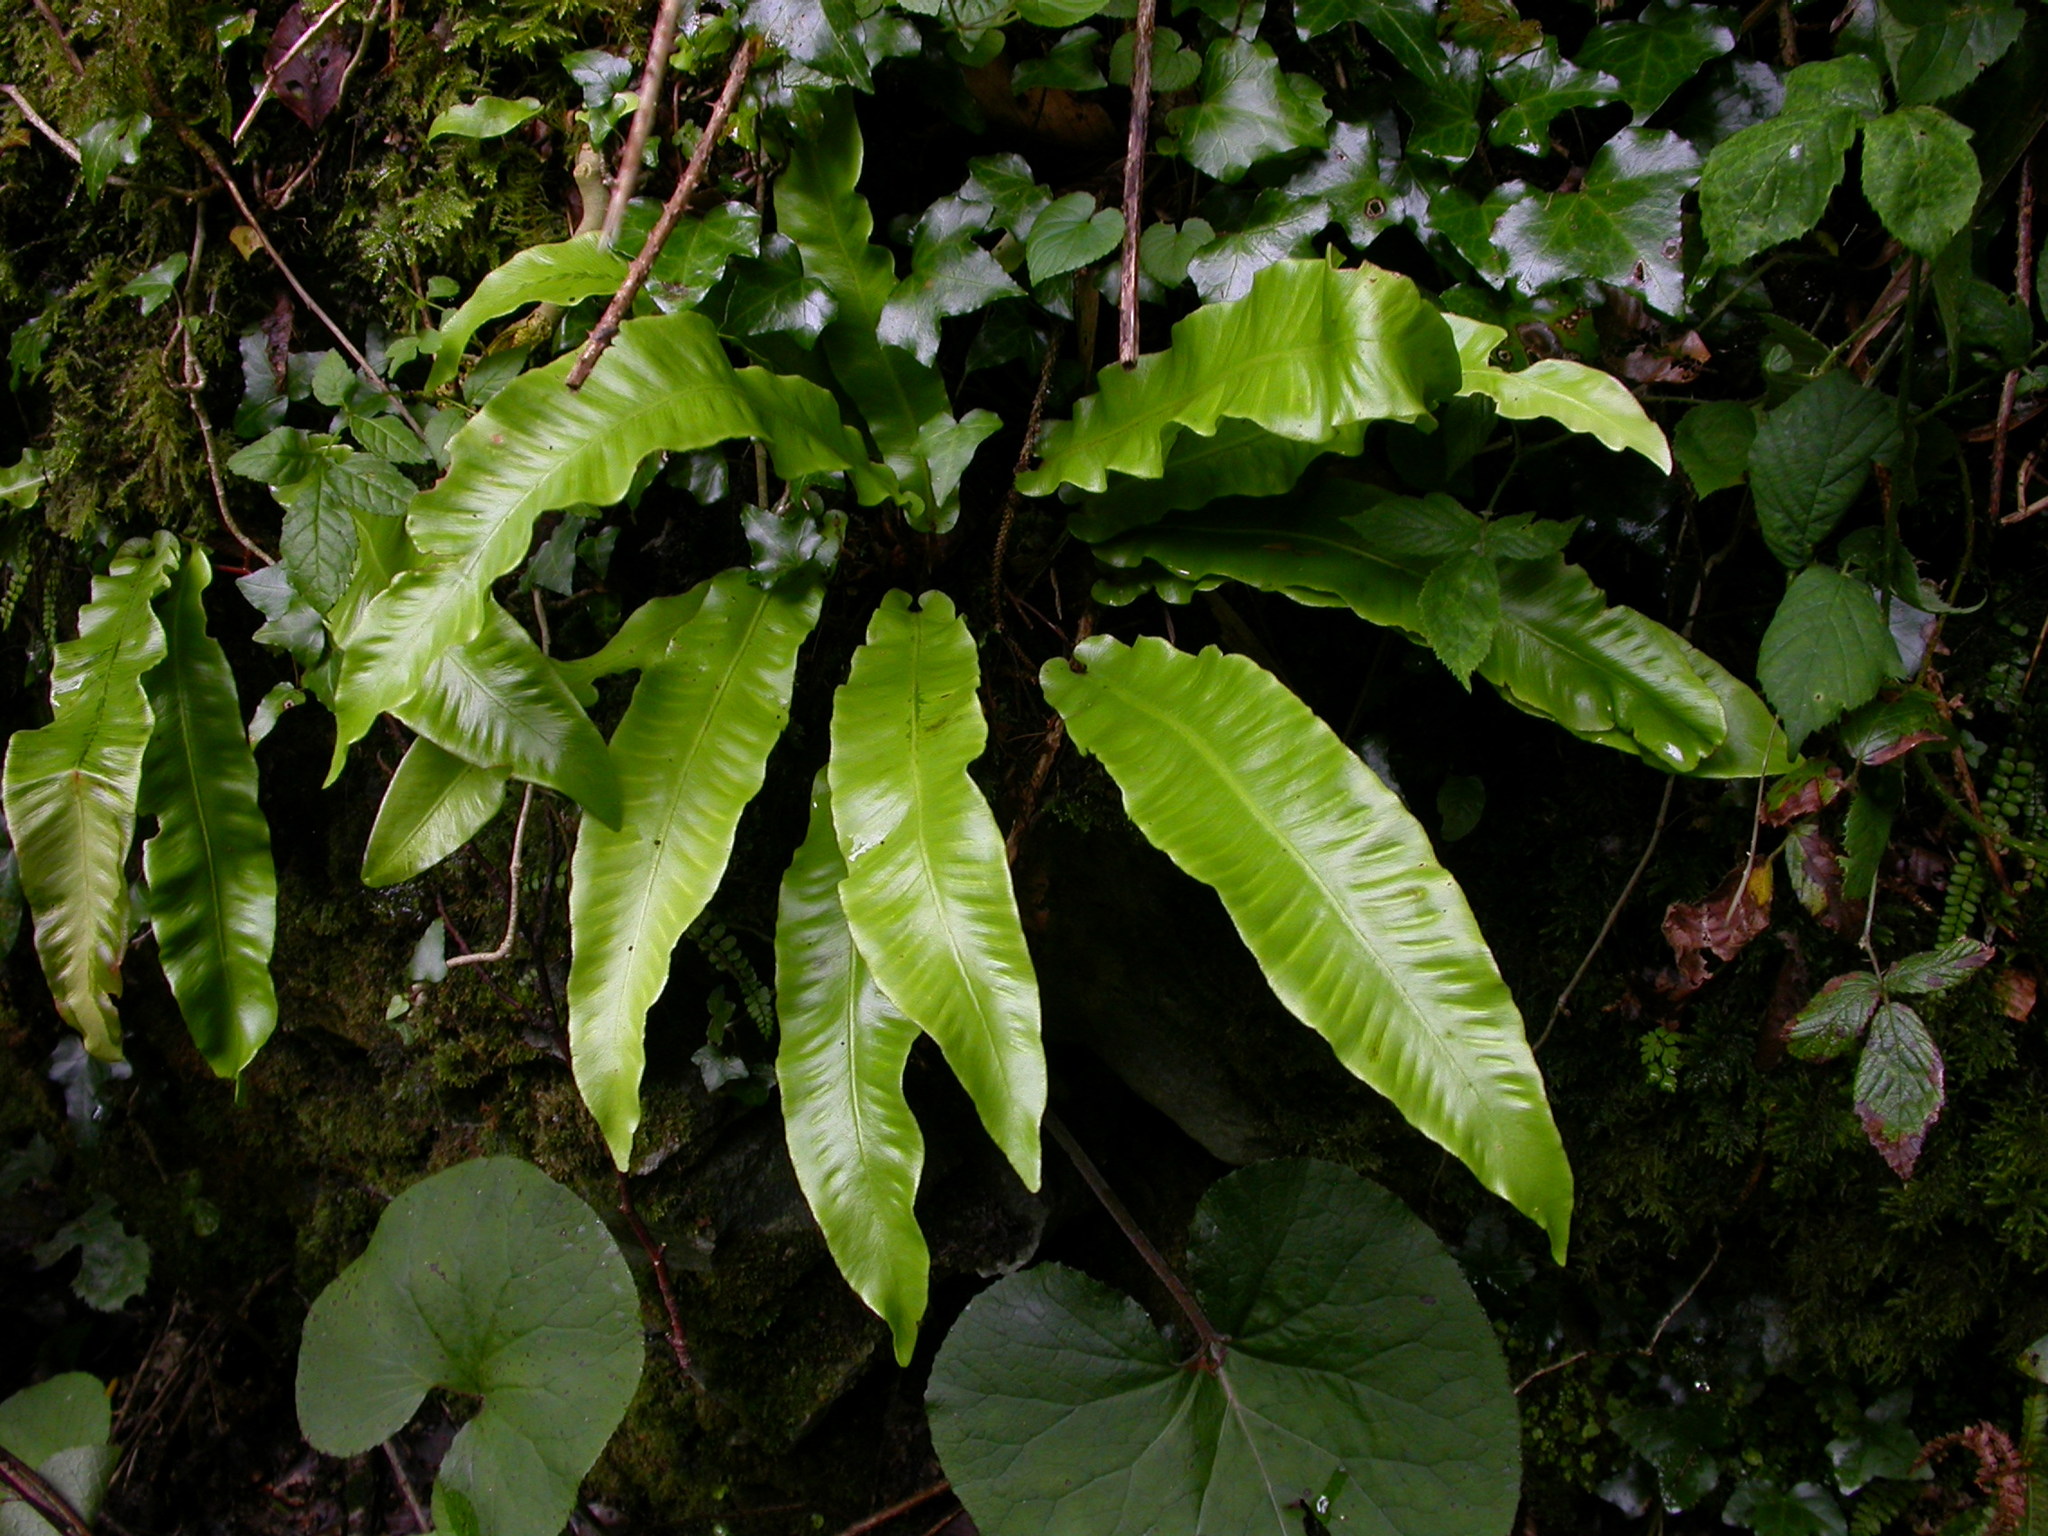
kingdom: Plantae
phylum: Tracheophyta
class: Polypodiopsida
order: Polypodiales
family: Aspleniaceae
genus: Asplenium
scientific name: Asplenium scolopendrium
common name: Hart's-tongue fern
